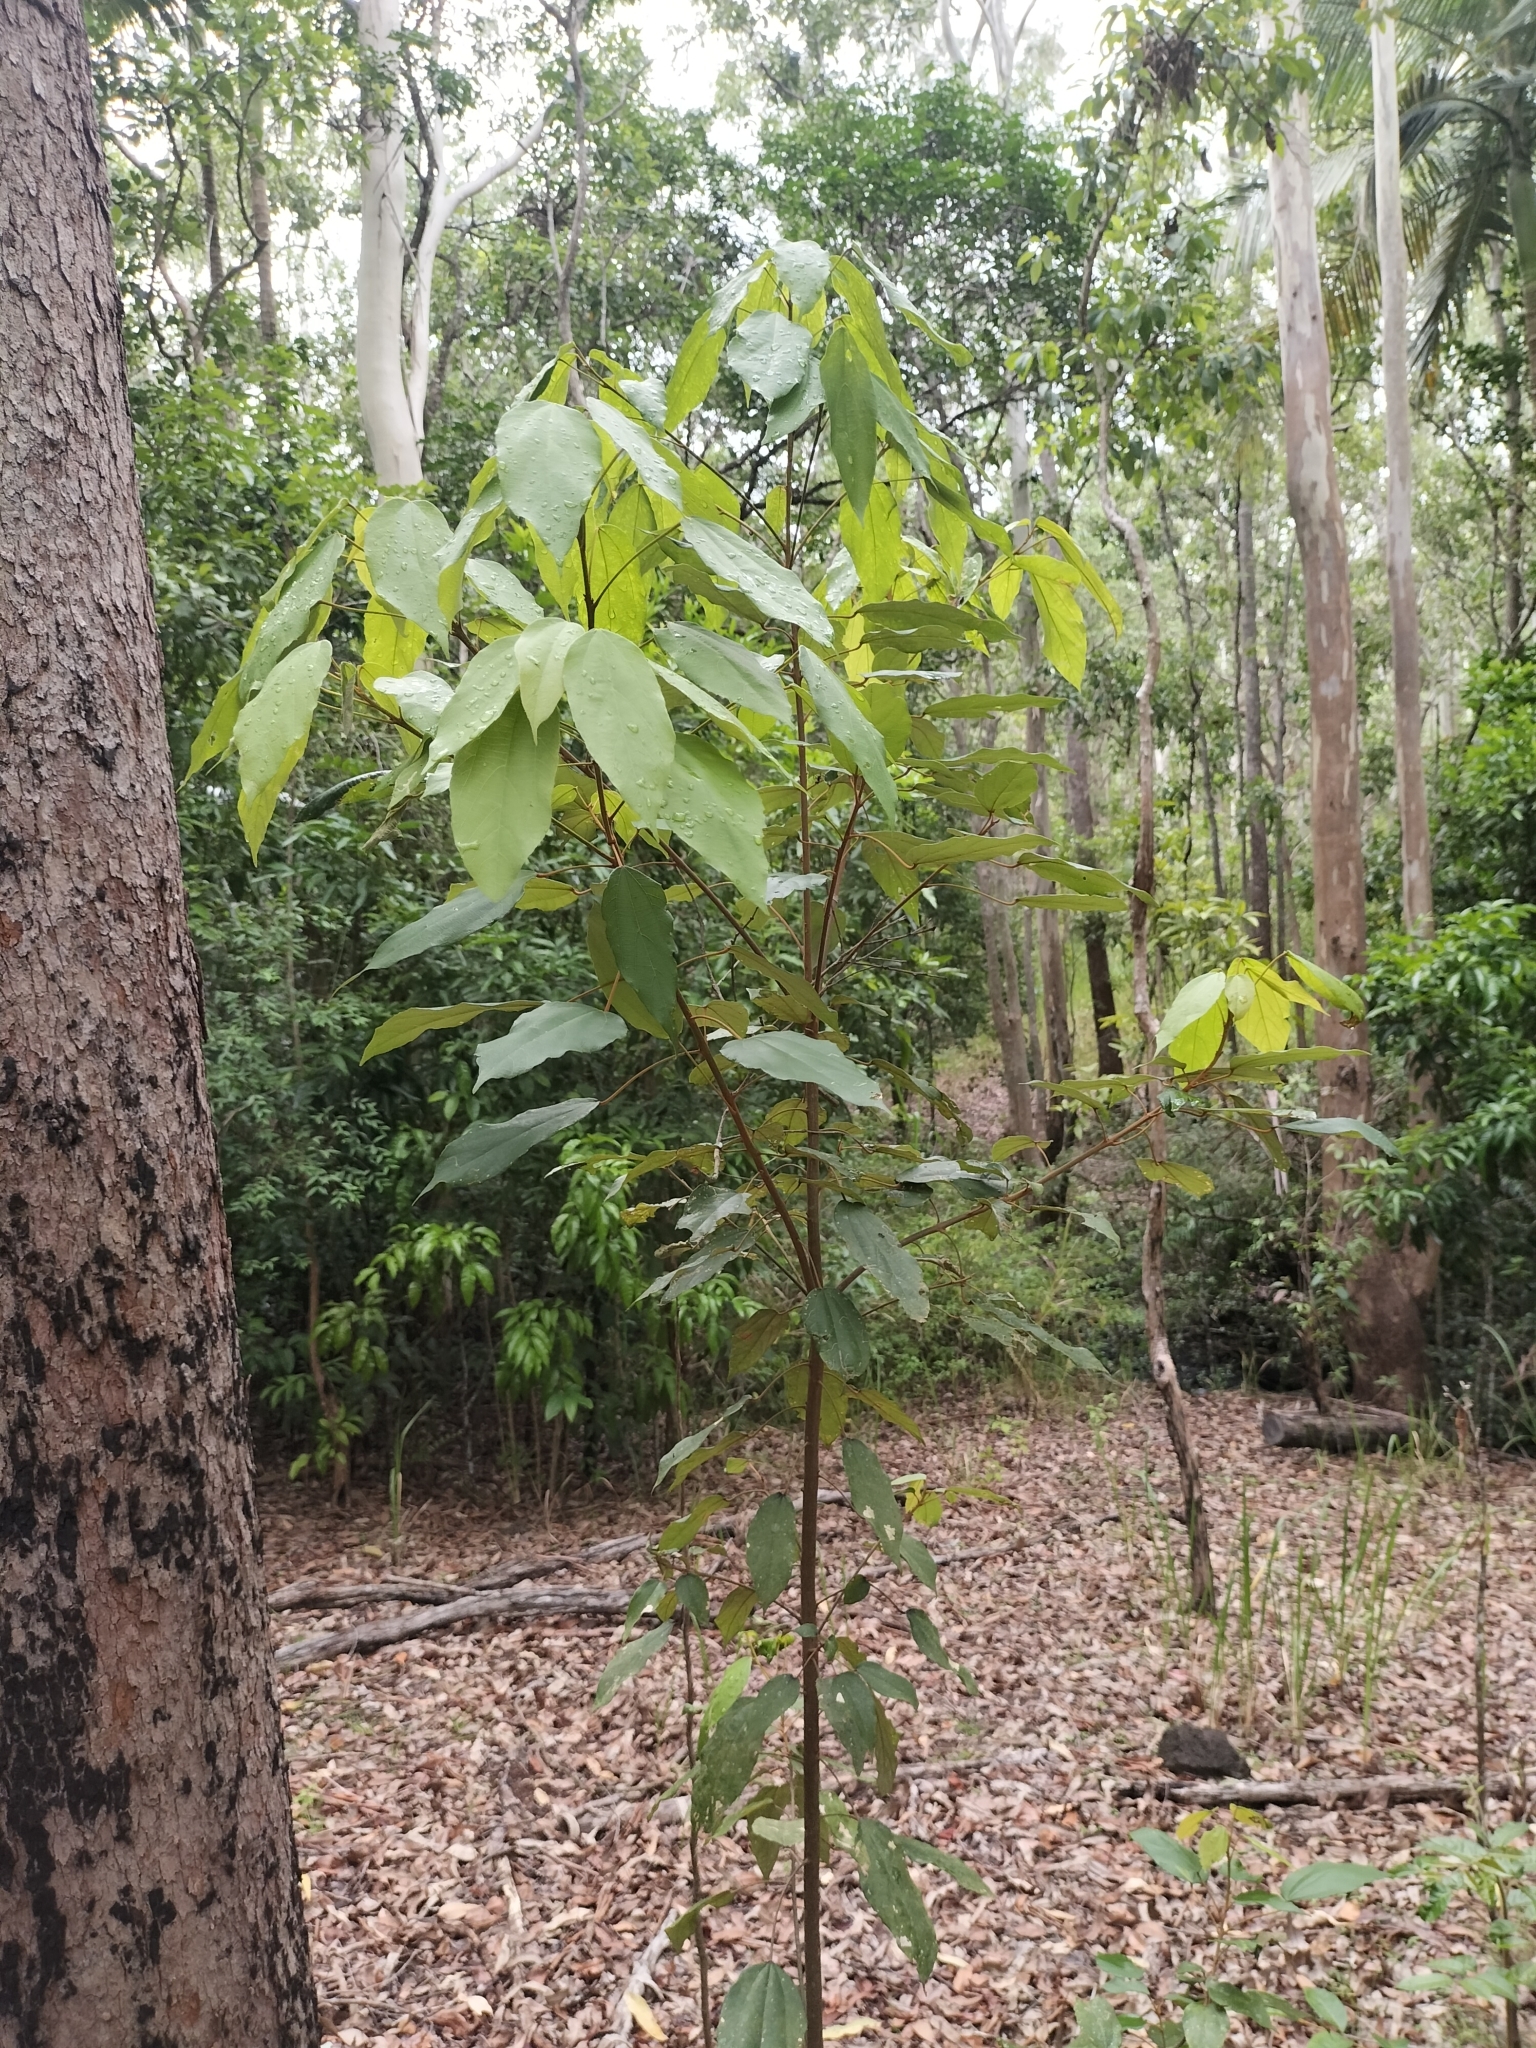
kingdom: Plantae
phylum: Tracheophyta
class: Magnoliopsida
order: Malpighiales
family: Euphorbiaceae
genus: Mallotus
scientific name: Mallotus philippensis
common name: Kamala tree
